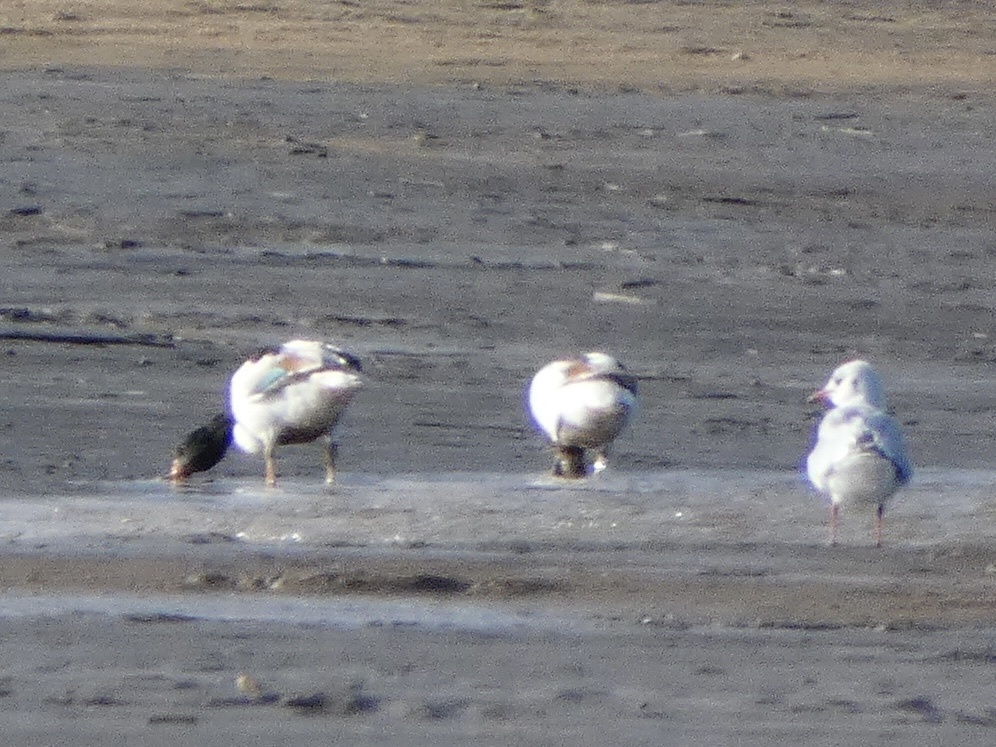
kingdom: Animalia
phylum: Chordata
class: Aves
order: Anseriformes
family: Anatidae
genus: Tadorna
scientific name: Tadorna tadorna
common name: Common shelduck
